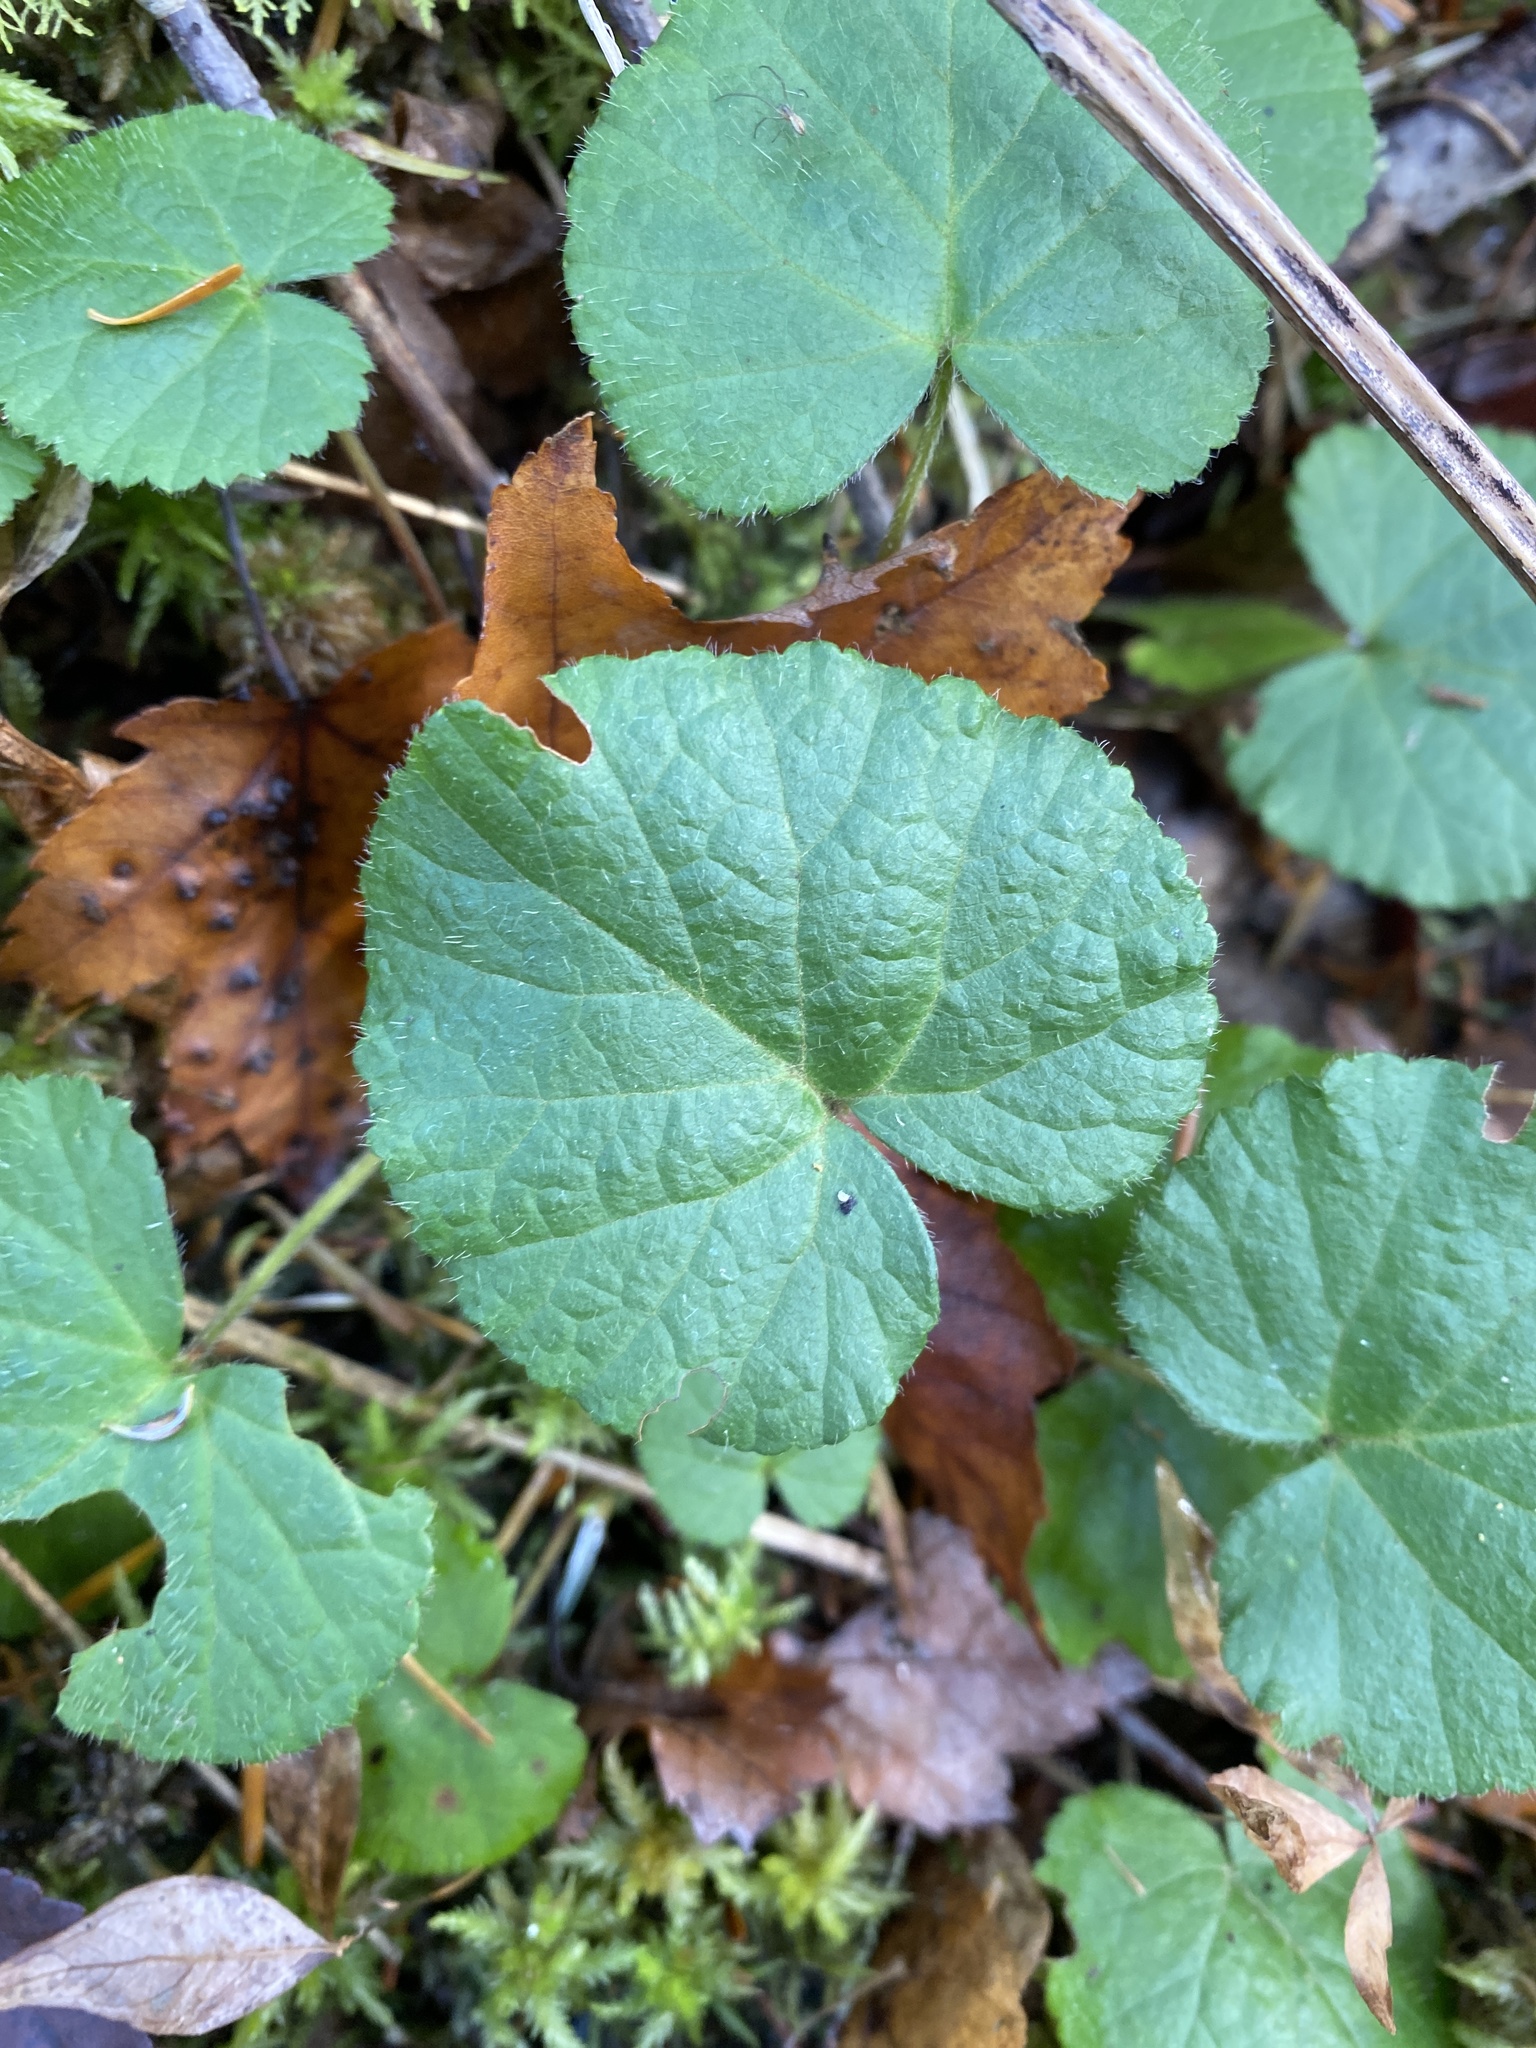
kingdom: Plantae
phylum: Tracheophyta
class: Magnoliopsida
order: Rosales
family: Rosaceae
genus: Dalibarda
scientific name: Dalibarda repens
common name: Dewdrop
